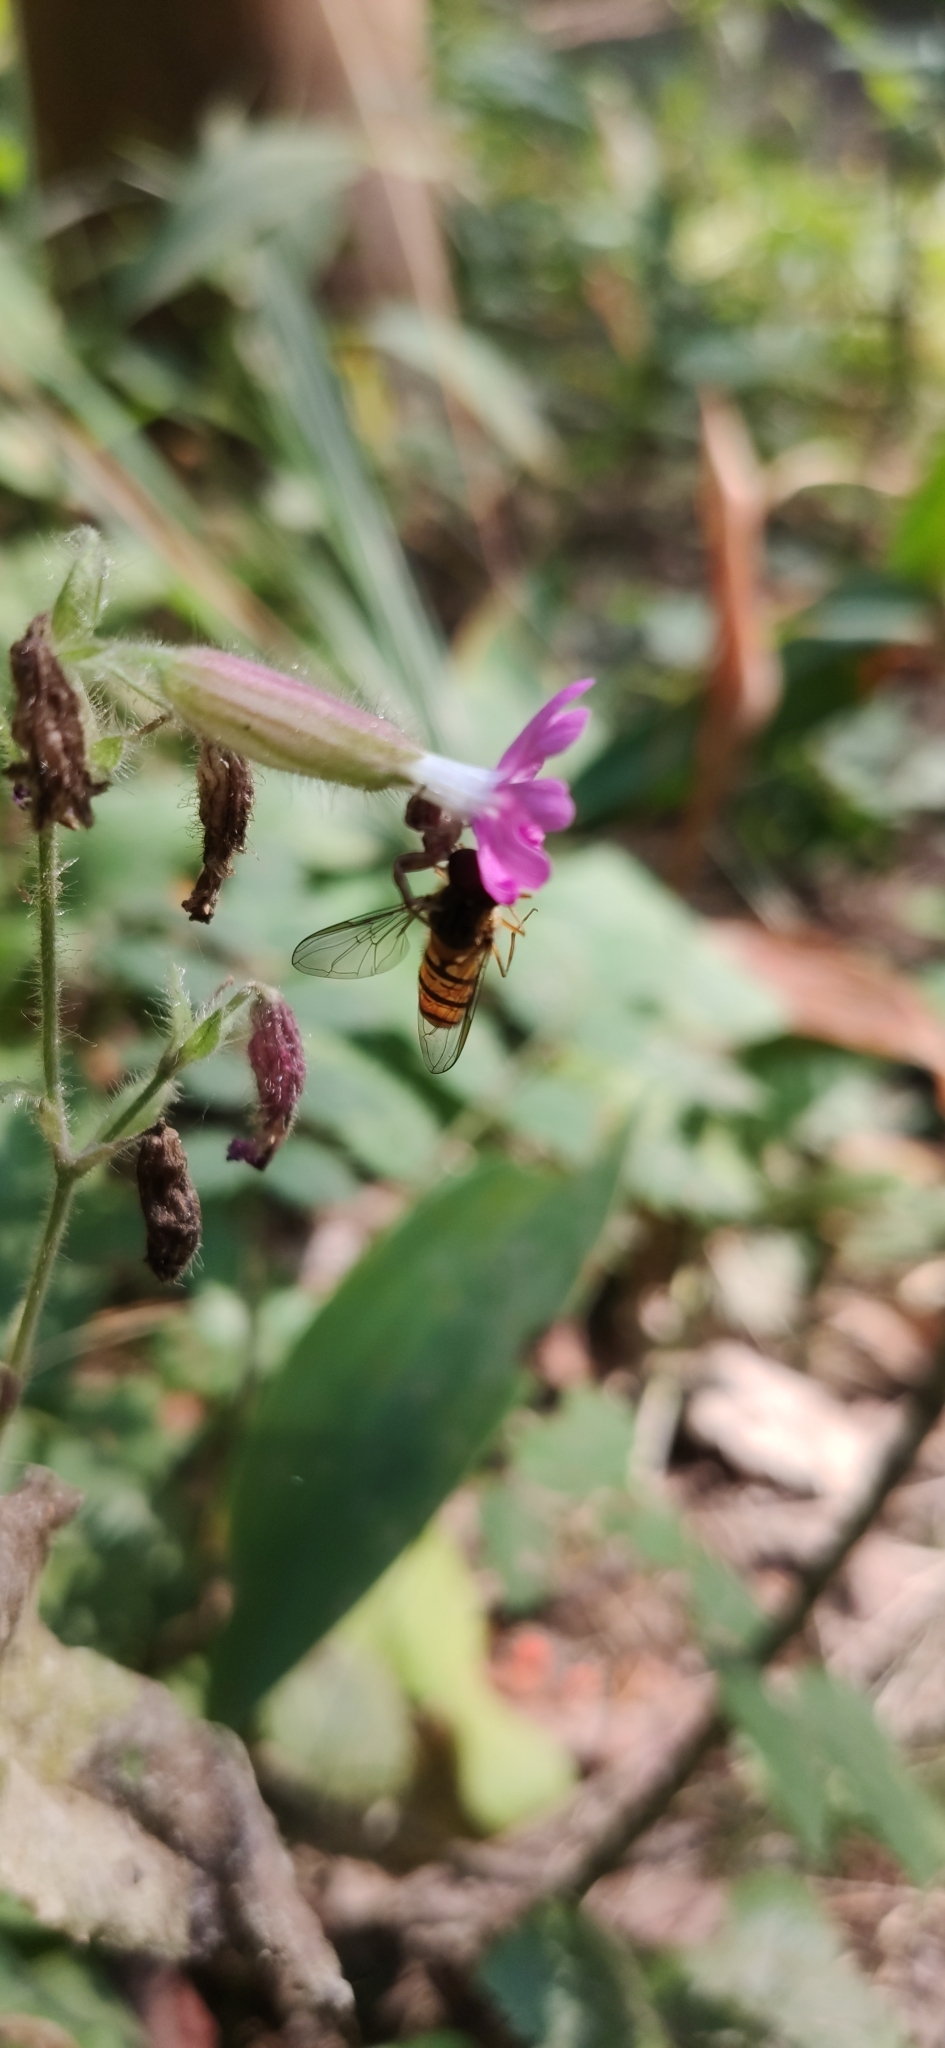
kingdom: Animalia
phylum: Arthropoda
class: Insecta
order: Diptera
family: Syrphidae
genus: Episyrphus
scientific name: Episyrphus balteatus
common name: Marmalade hoverfly
